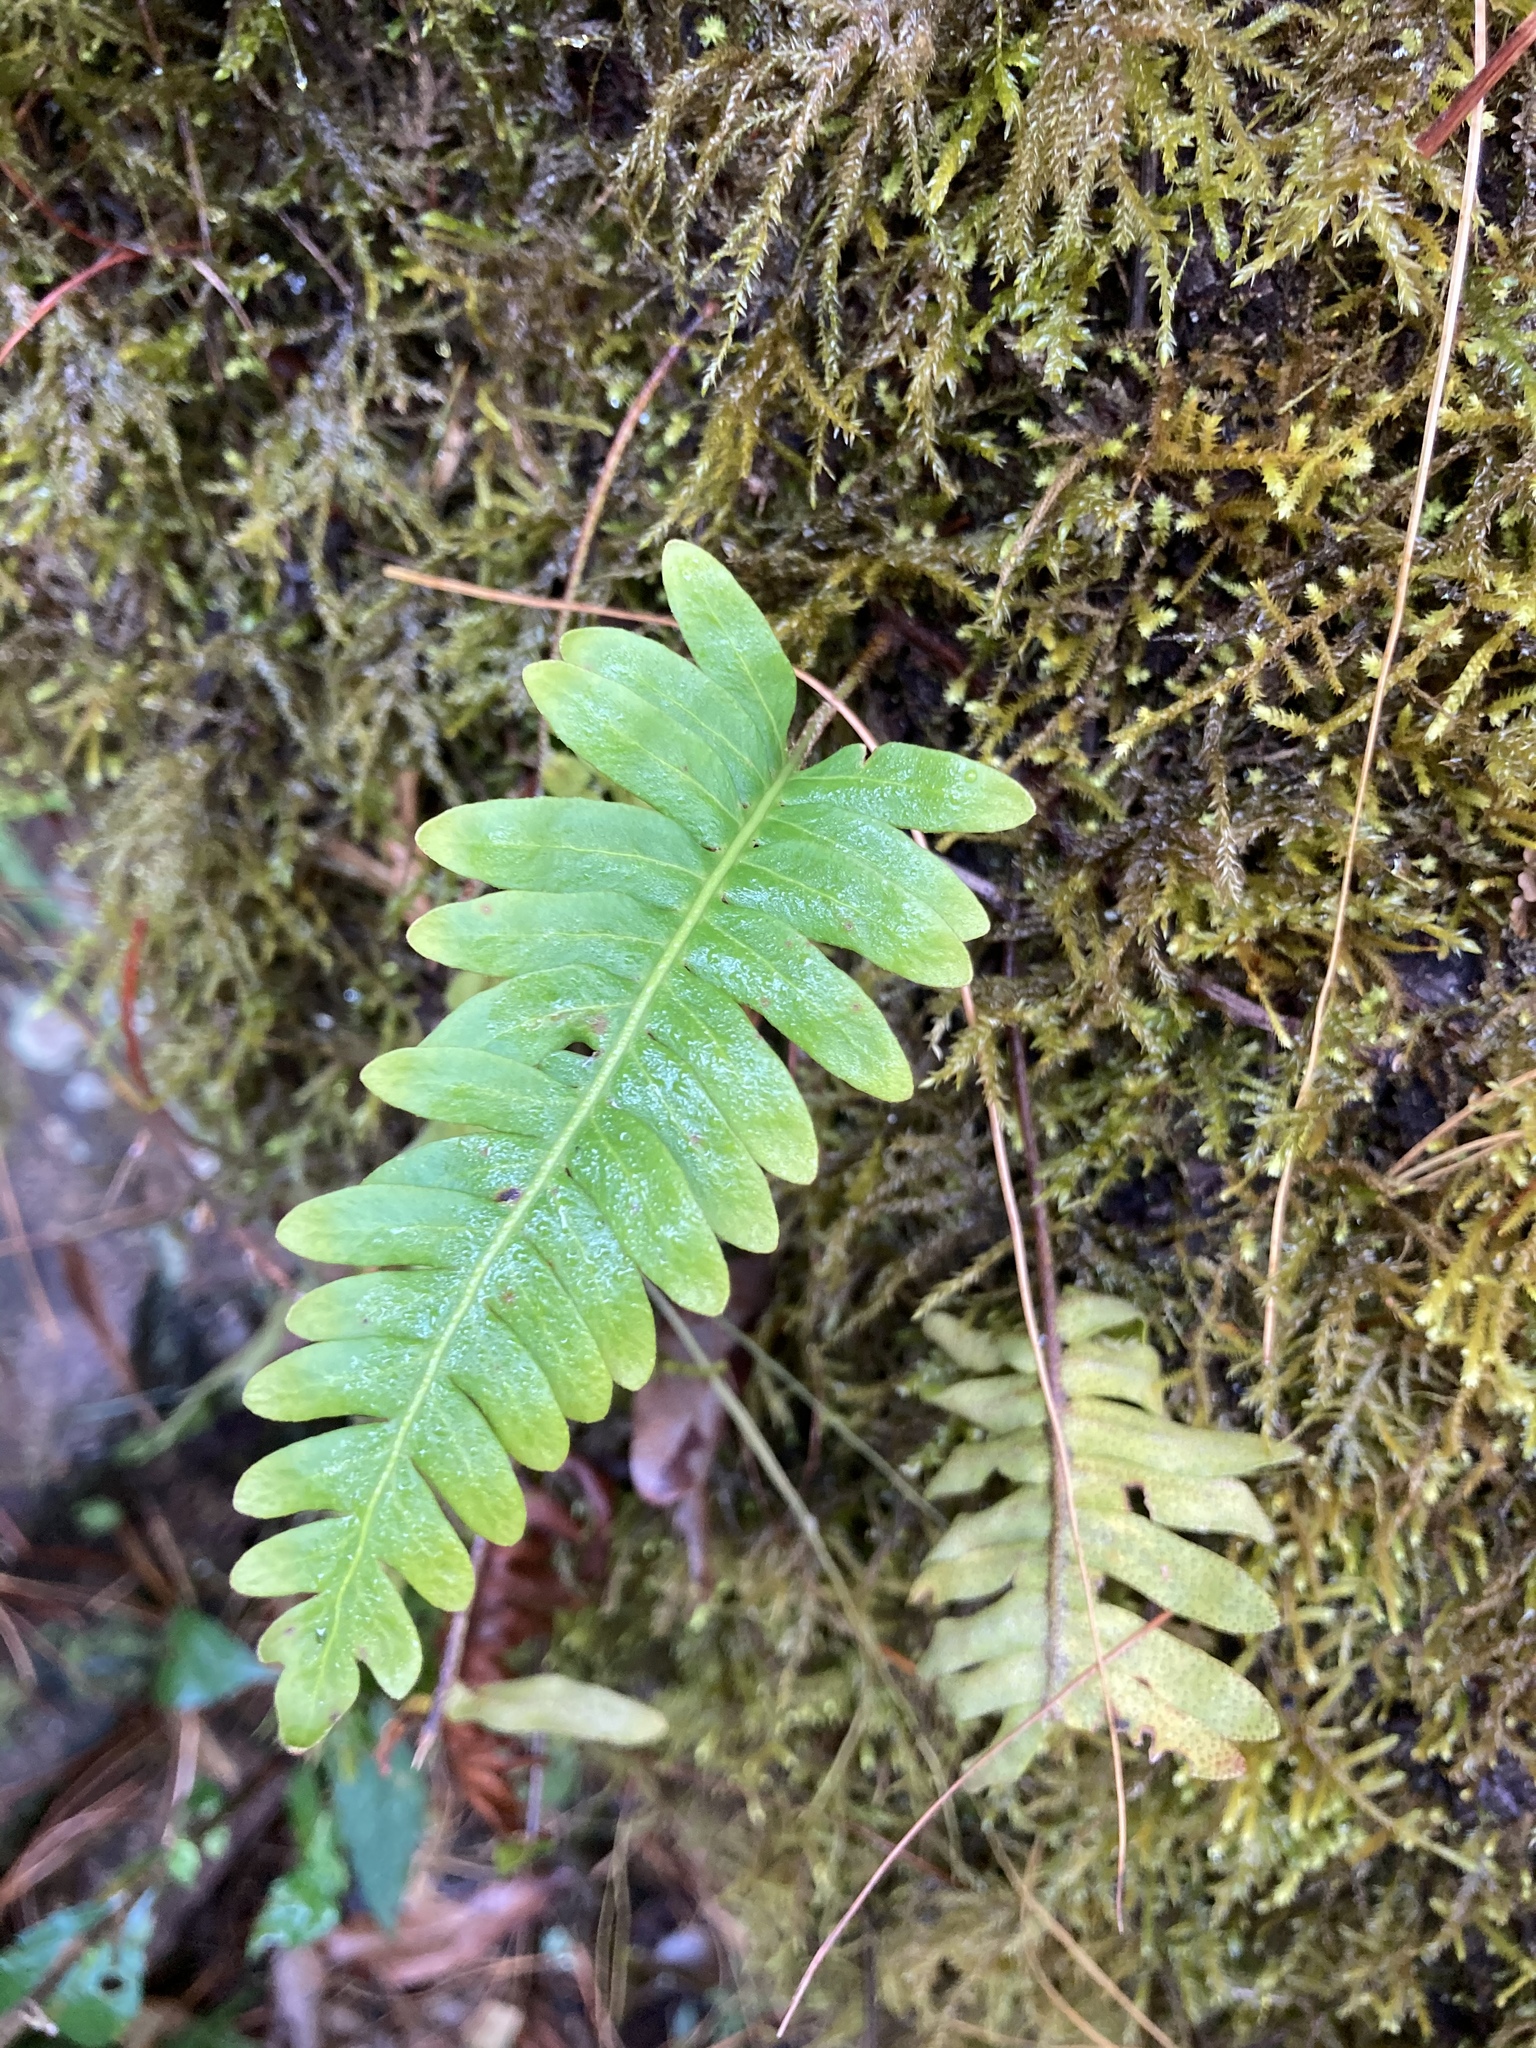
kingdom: Plantae
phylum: Tracheophyta
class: Polypodiopsida
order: Polypodiales
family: Polypodiaceae
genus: Pleopeltis
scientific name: Pleopeltis ecklonii
